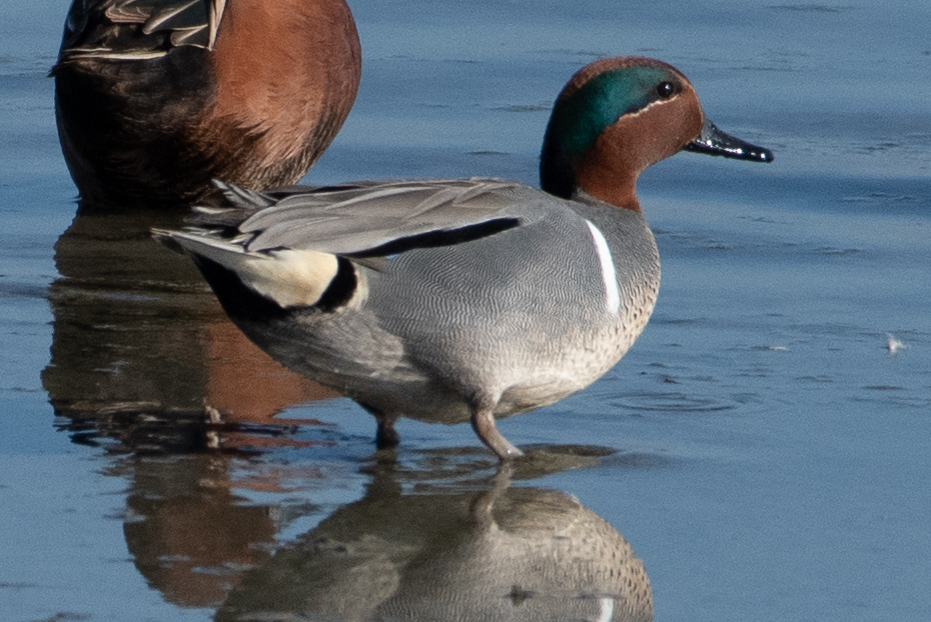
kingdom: Animalia
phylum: Chordata
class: Aves
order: Anseriformes
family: Anatidae
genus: Anas
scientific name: Anas crecca
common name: Eurasian teal
